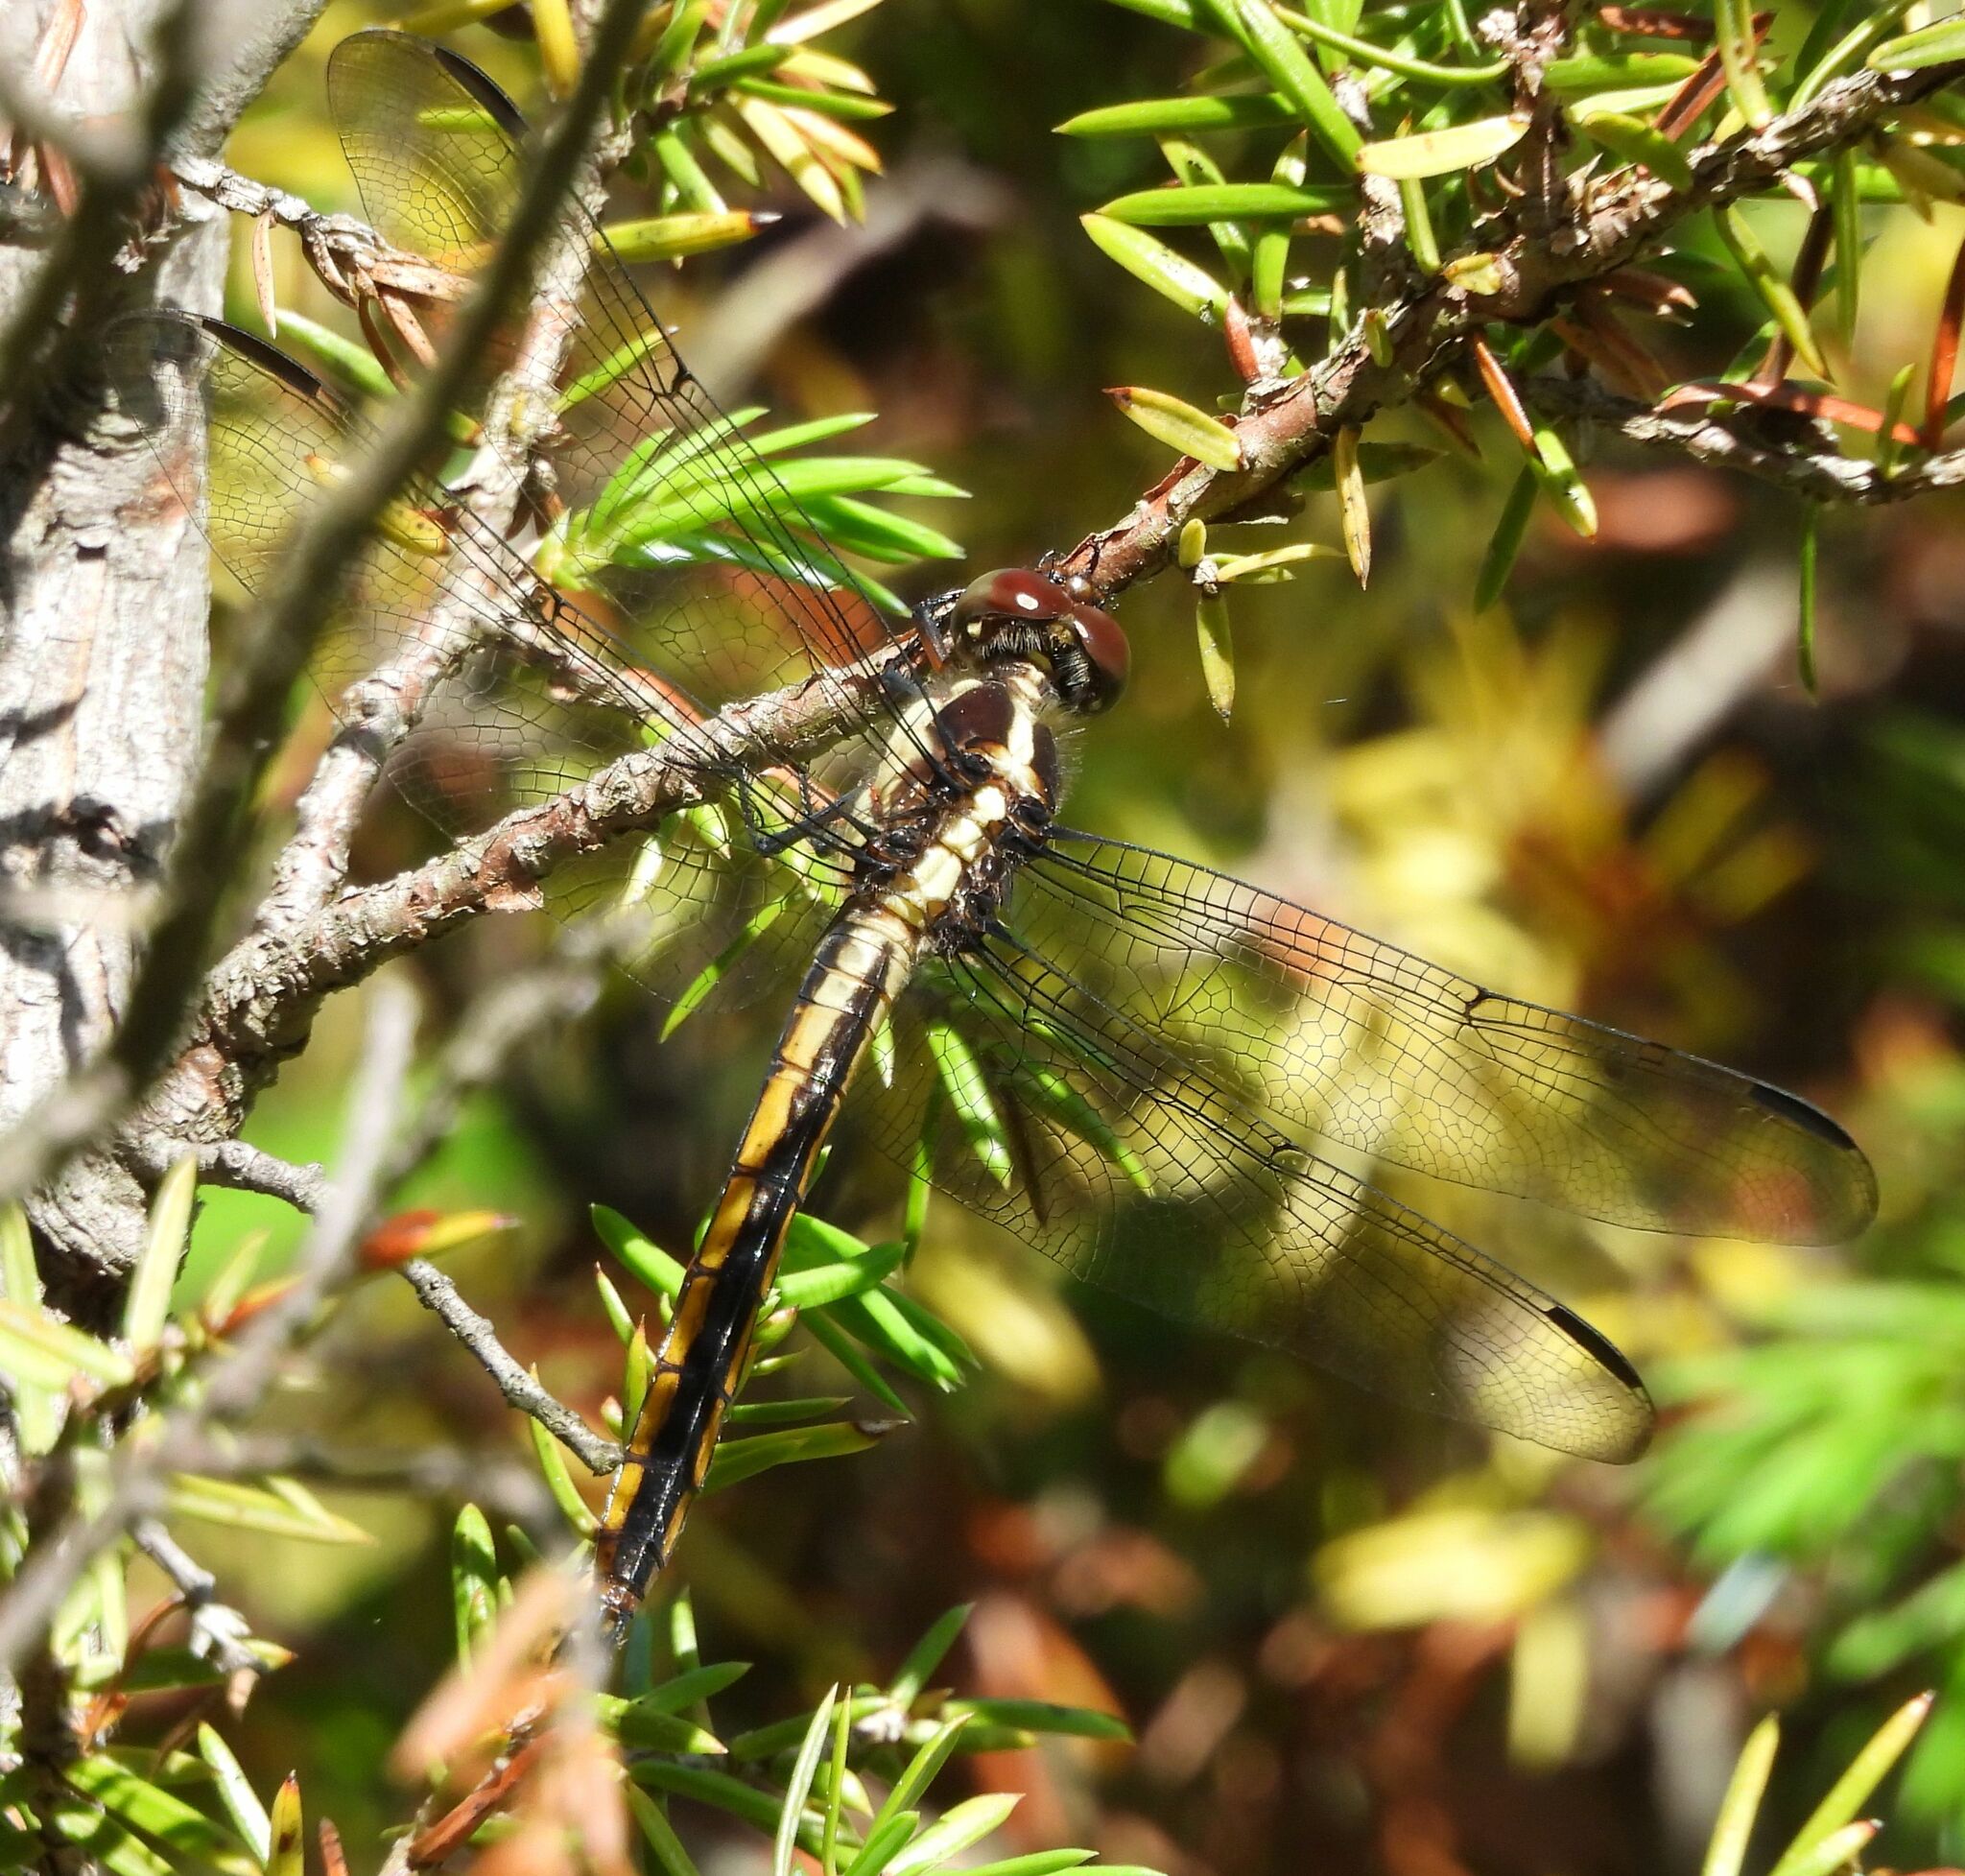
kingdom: Animalia
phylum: Arthropoda
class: Insecta
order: Odonata
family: Libellulidae
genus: Libellula
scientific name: Libellula incesta
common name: Slaty skimmer
